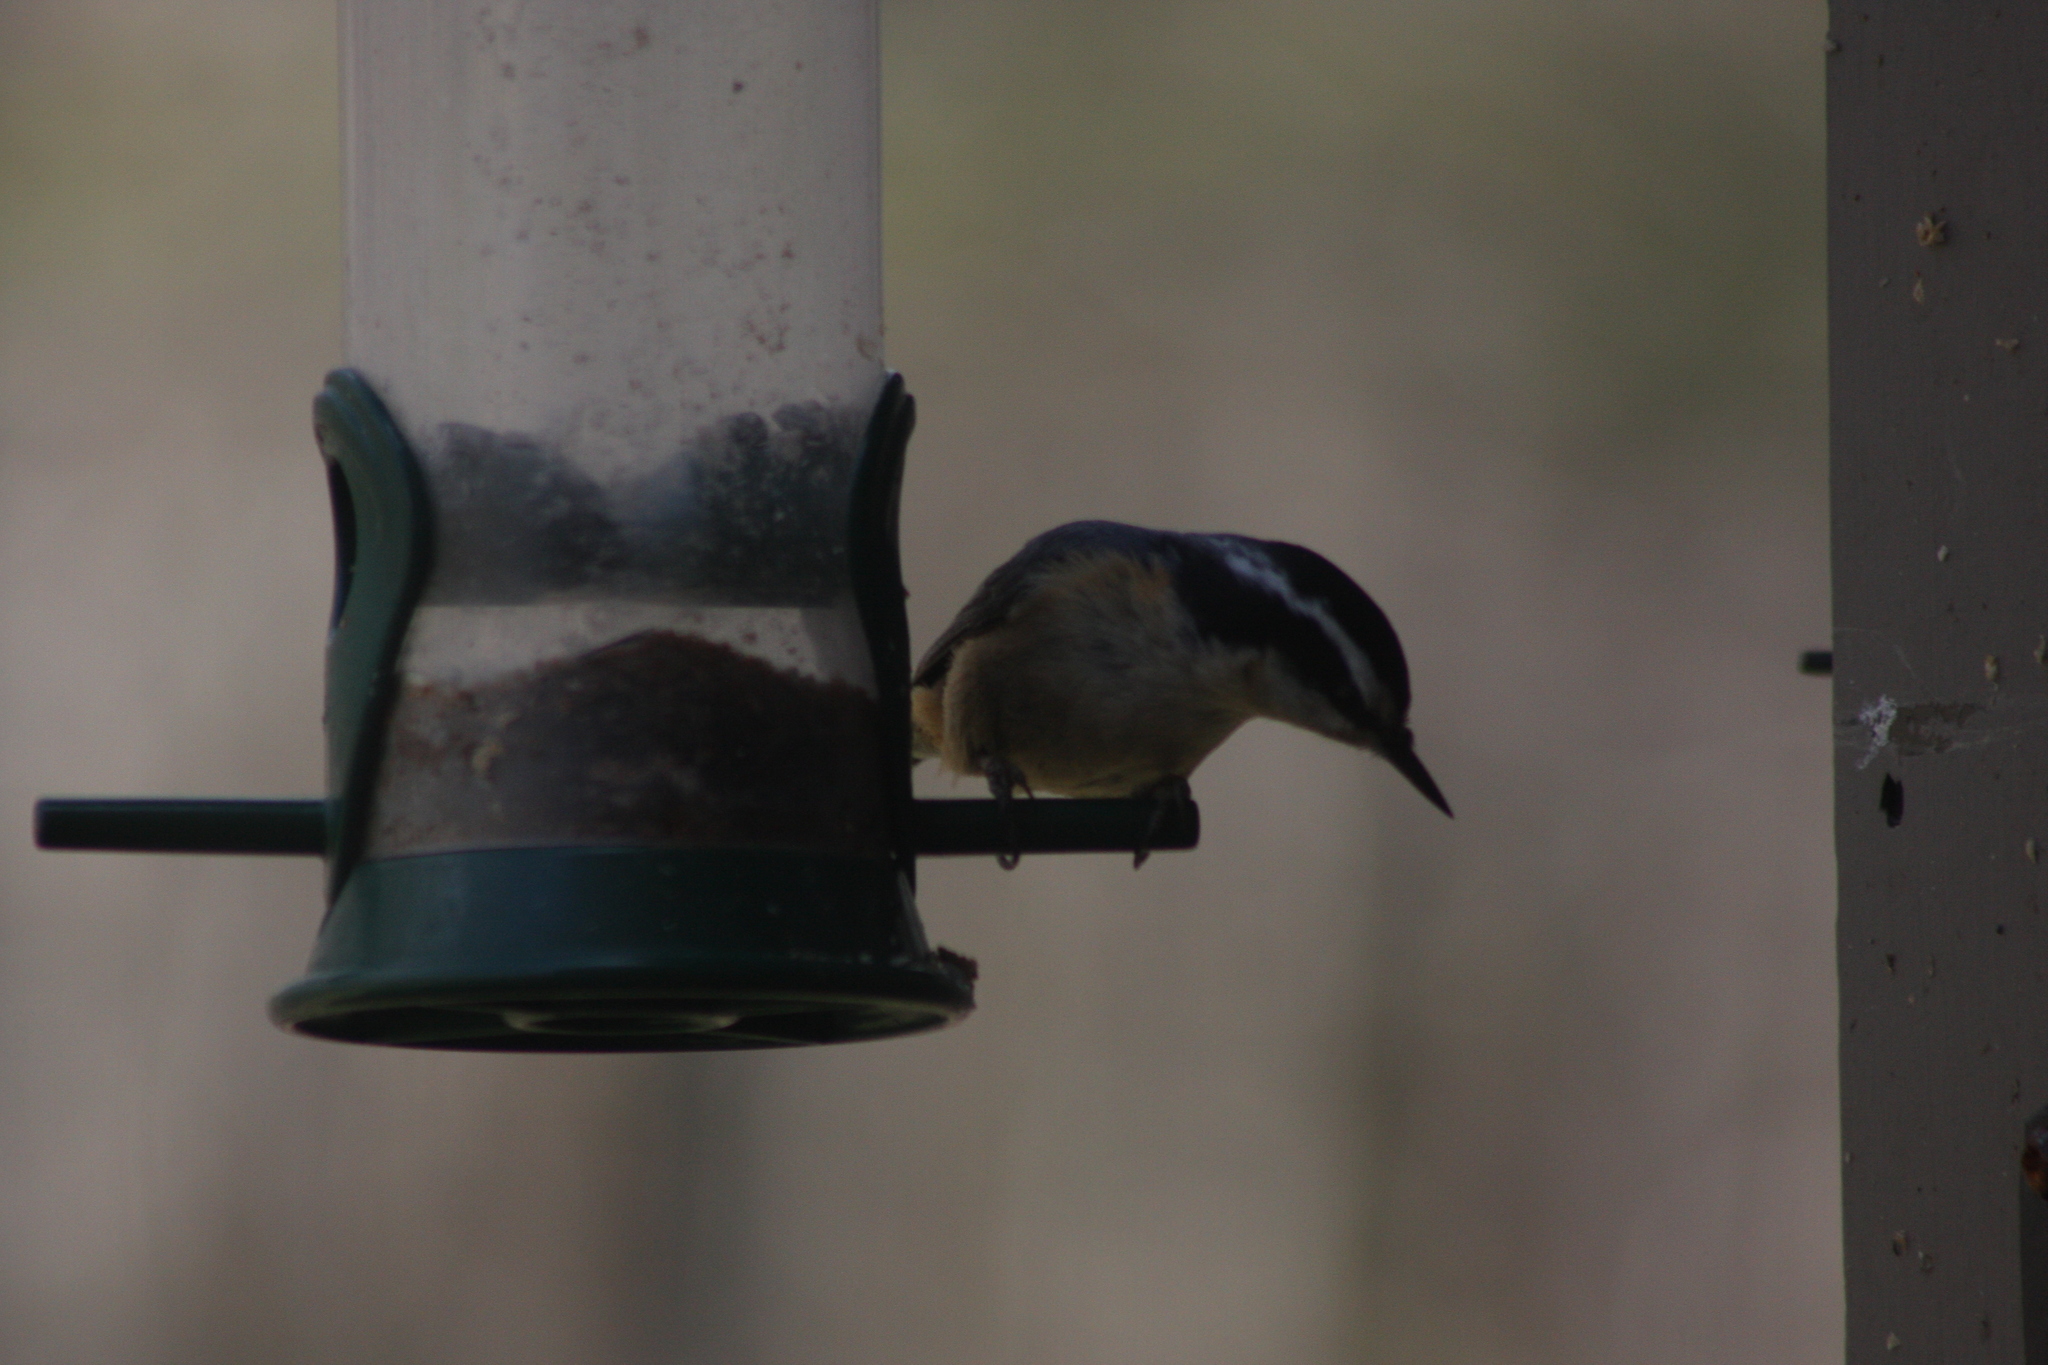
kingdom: Animalia
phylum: Chordata
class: Aves
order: Passeriformes
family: Sittidae
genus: Sitta
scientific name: Sitta canadensis
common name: Red-breasted nuthatch
